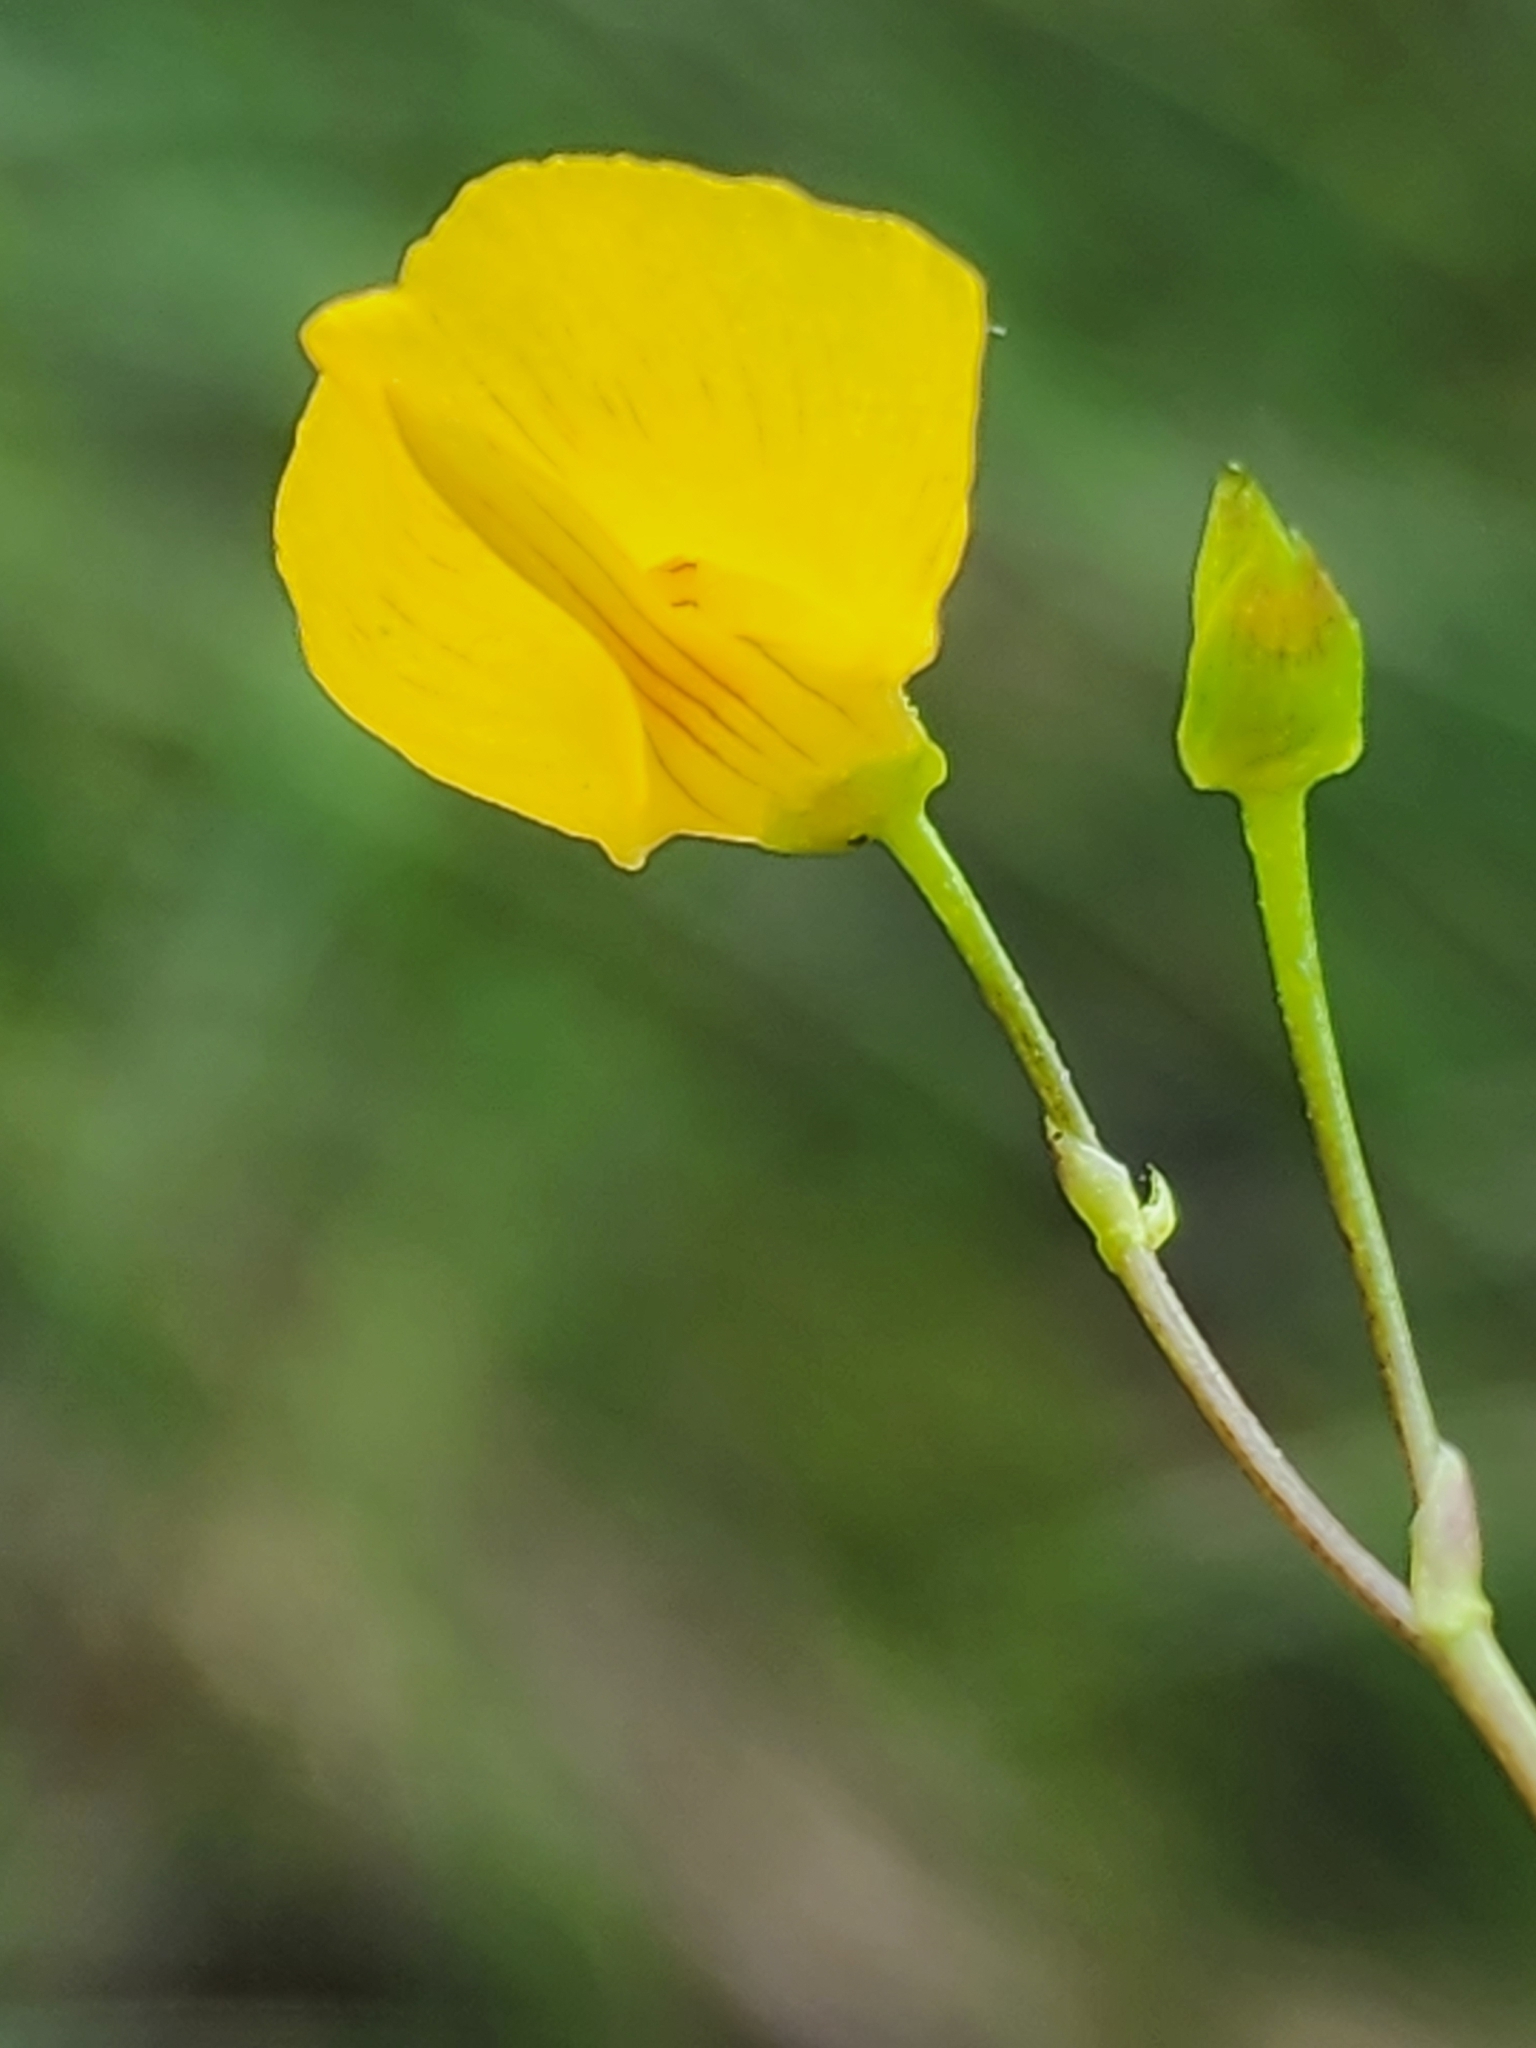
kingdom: Plantae
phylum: Tracheophyta
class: Magnoliopsida
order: Lamiales
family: Lentibulariaceae
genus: Utricularia
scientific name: Utricularia intermedia
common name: Intermediate bladderwort
